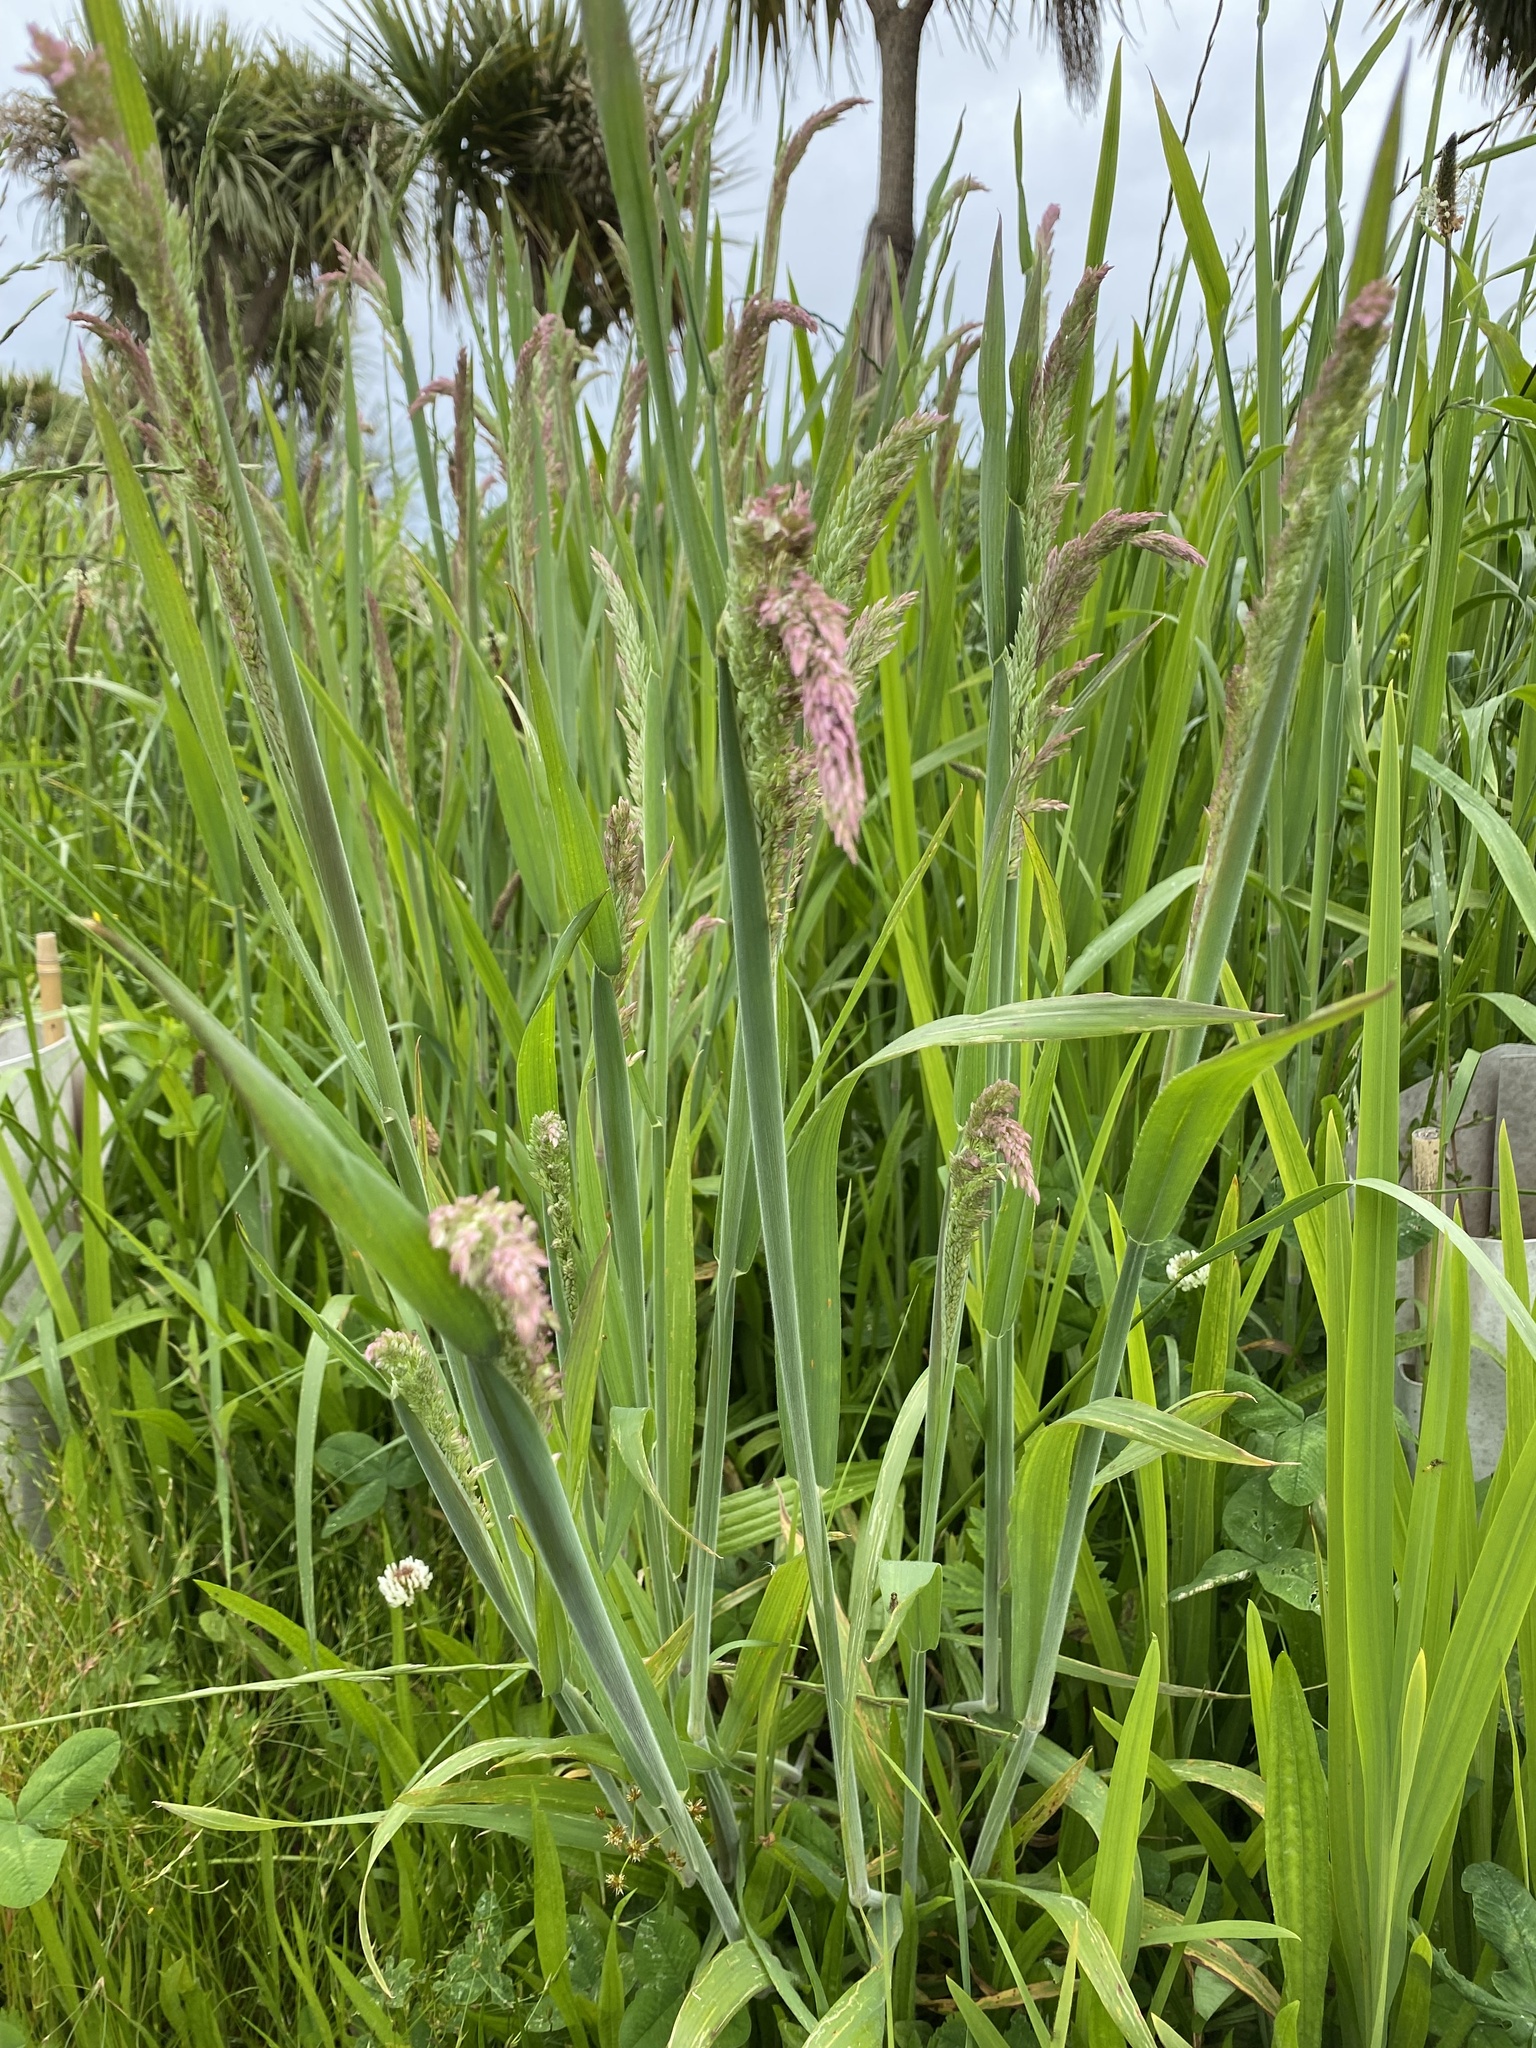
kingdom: Plantae
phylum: Tracheophyta
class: Liliopsida
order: Poales
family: Poaceae
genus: Holcus
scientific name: Holcus lanatus
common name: Yorkshire-fog
